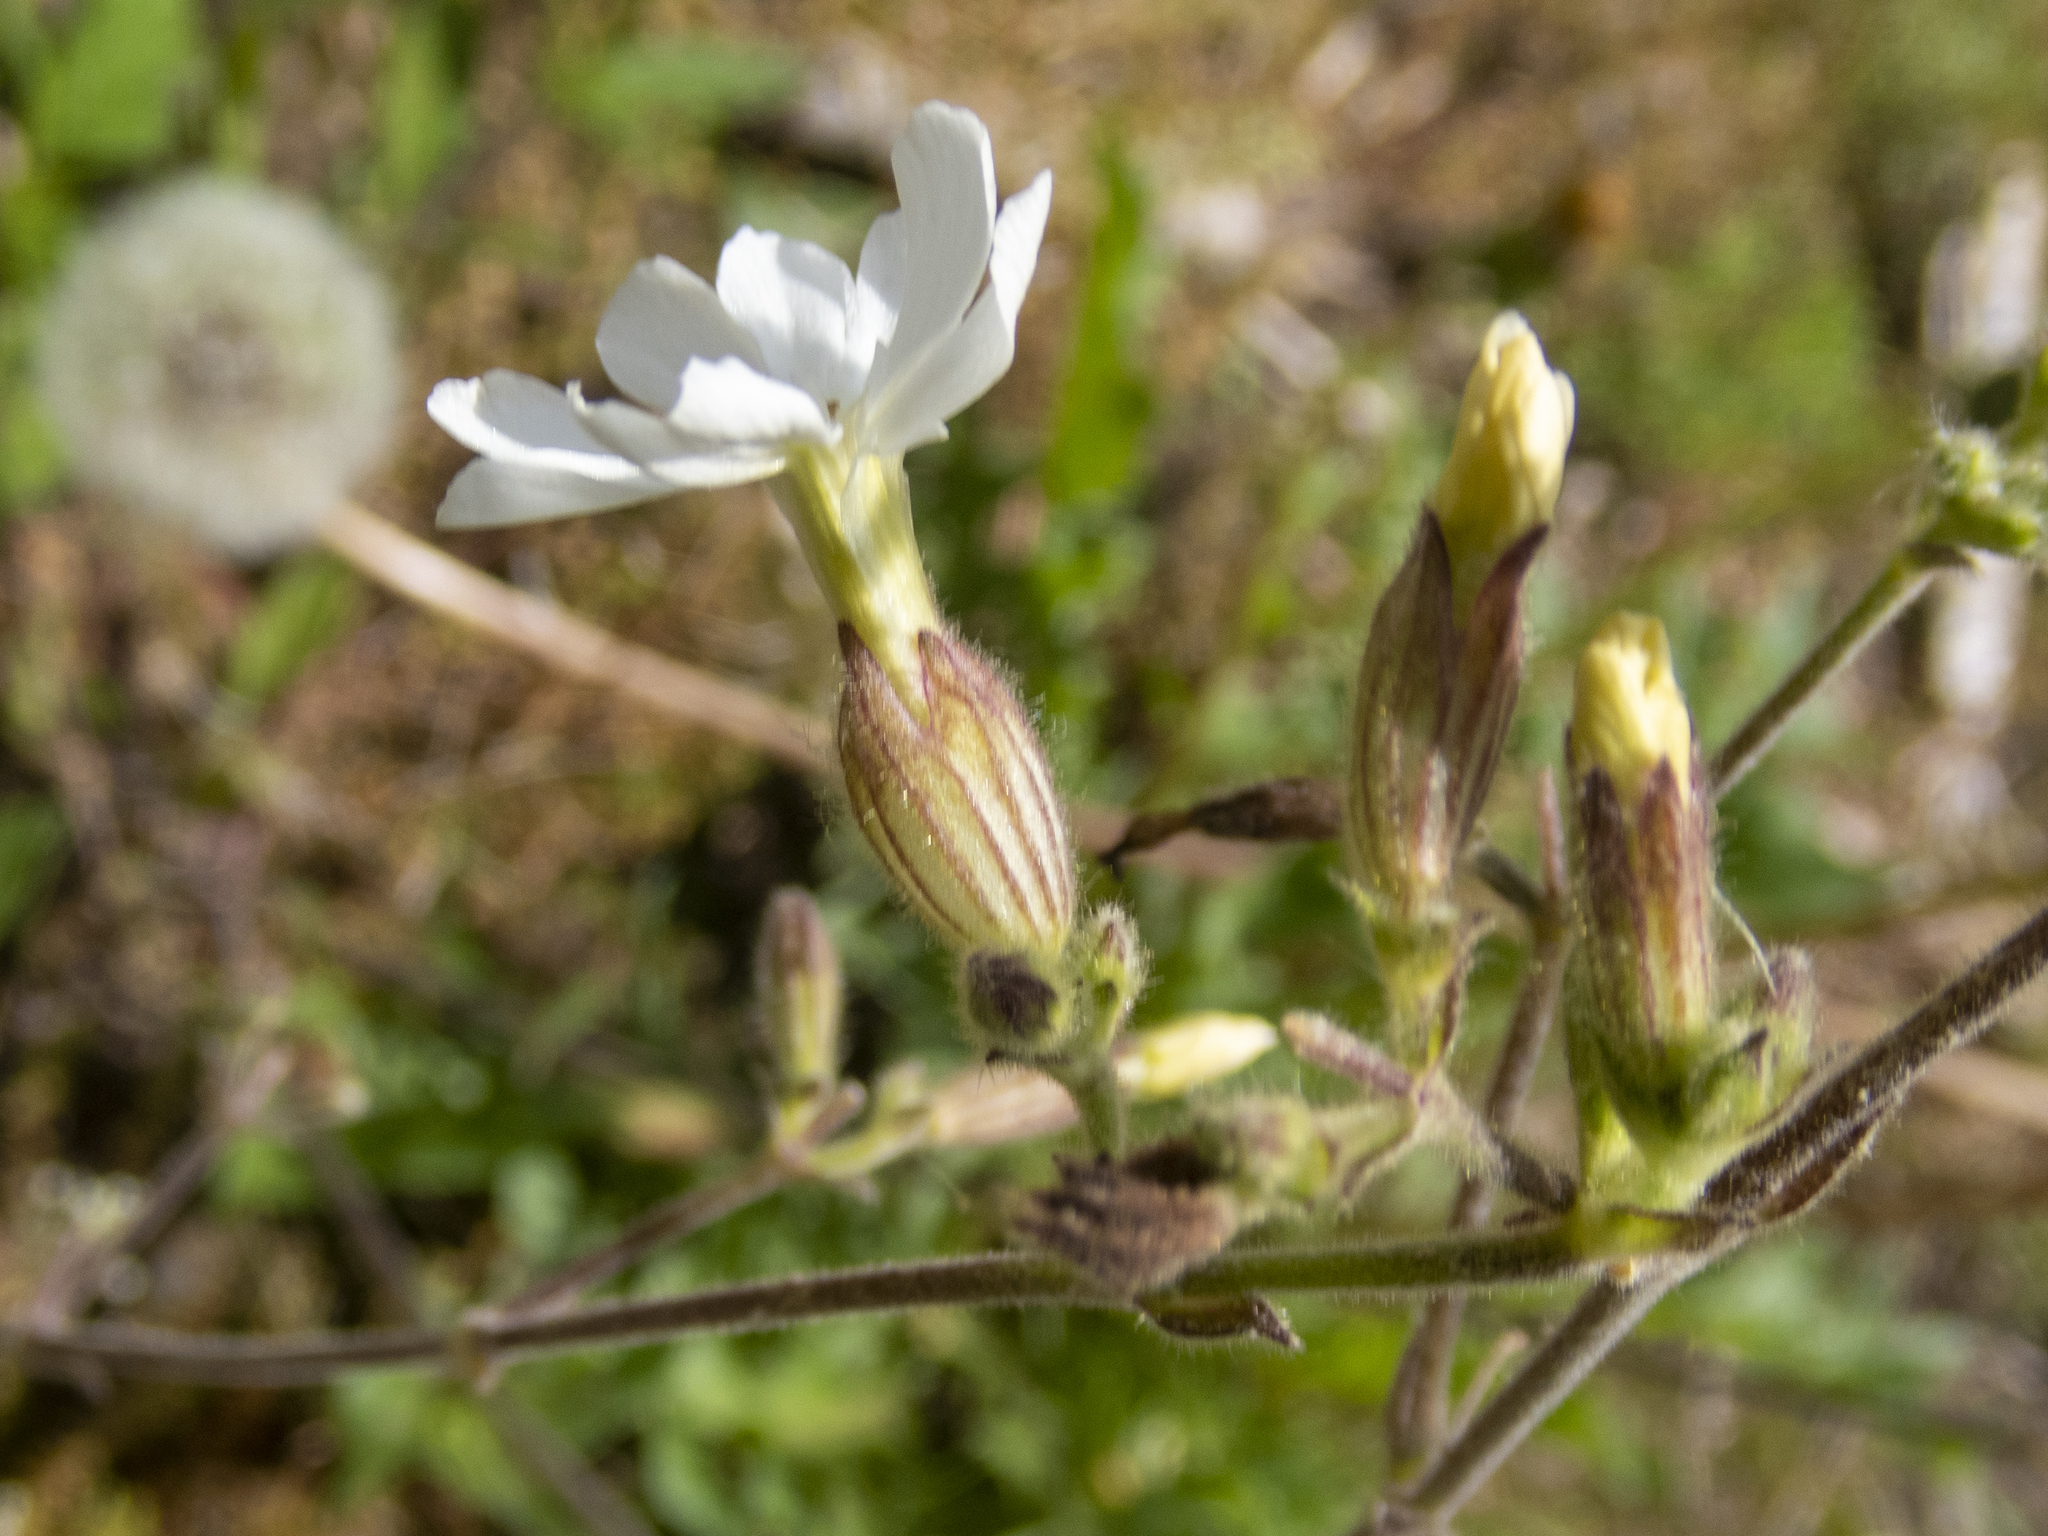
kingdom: Plantae
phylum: Tracheophyta
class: Magnoliopsida
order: Caryophyllales
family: Caryophyllaceae
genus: Silene
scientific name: Silene latifolia
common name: White campion
